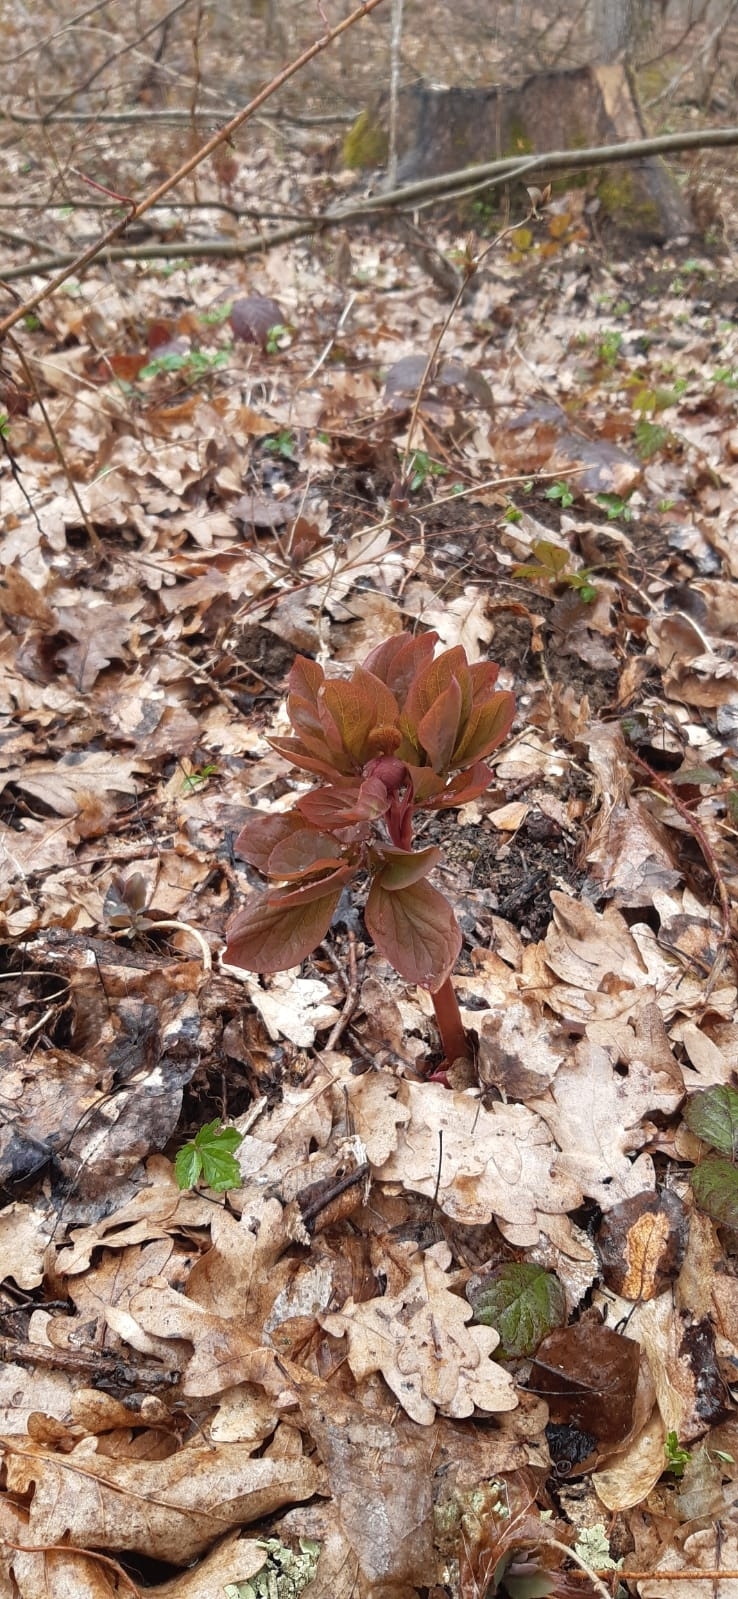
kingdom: Plantae
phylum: Tracheophyta
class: Magnoliopsida
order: Saxifragales
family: Paeoniaceae
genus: Paeonia
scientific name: Paeonia caucasica
